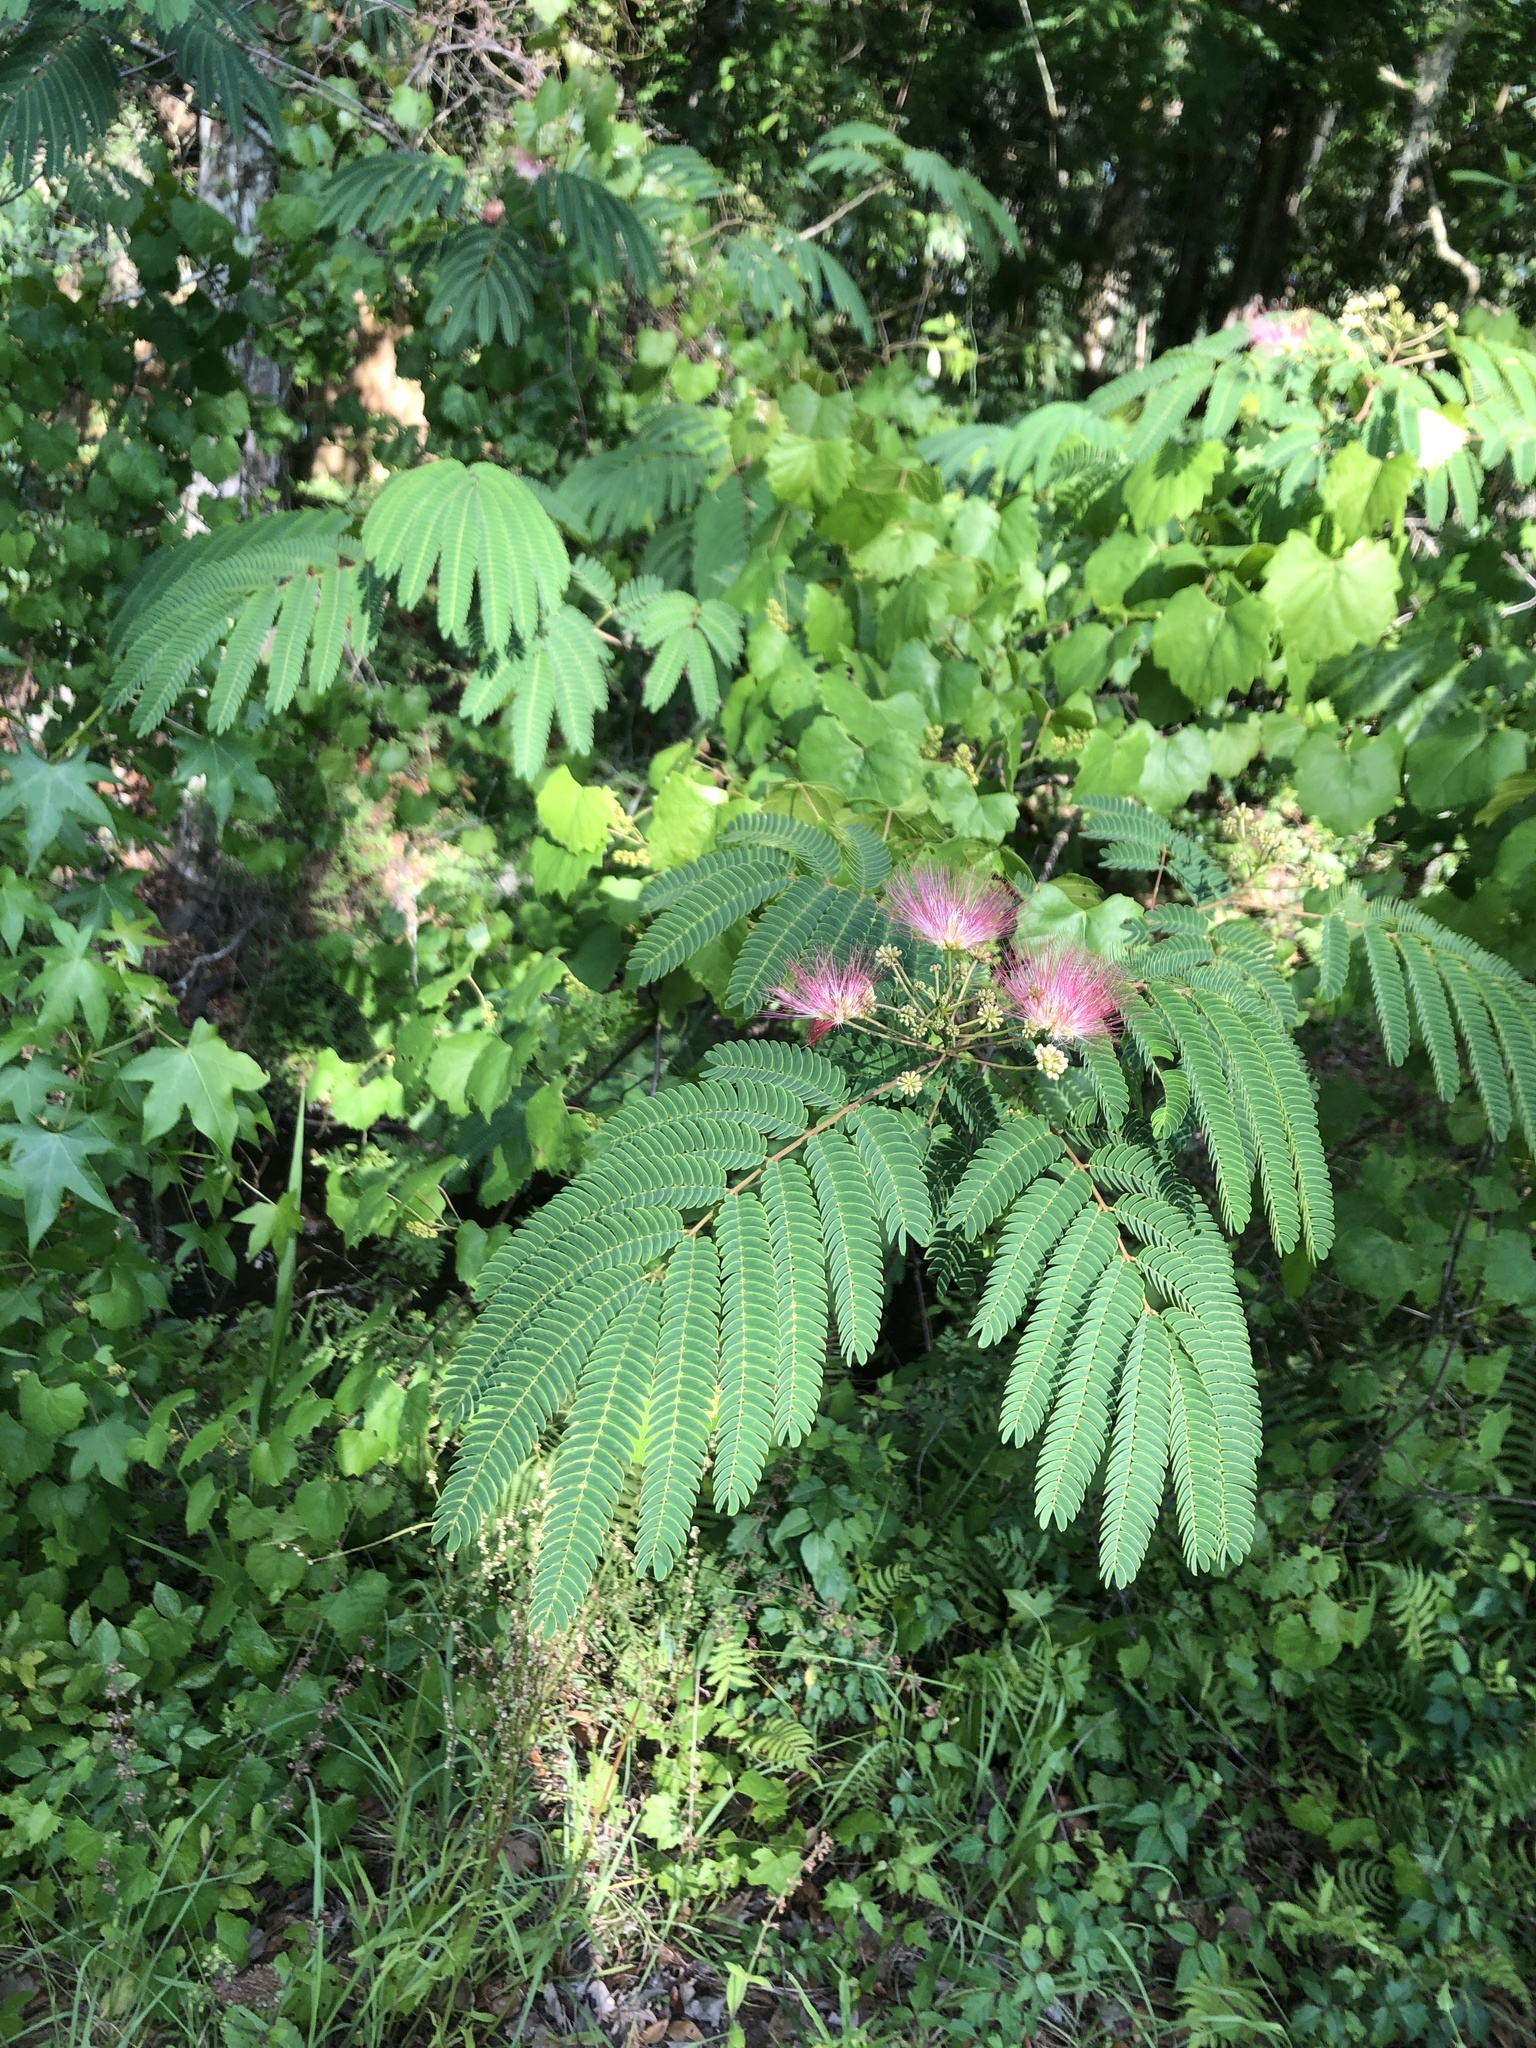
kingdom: Plantae
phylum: Tracheophyta
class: Magnoliopsida
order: Fabales
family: Fabaceae
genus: Albizia
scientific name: Albizia julibrissin
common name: Silktree
